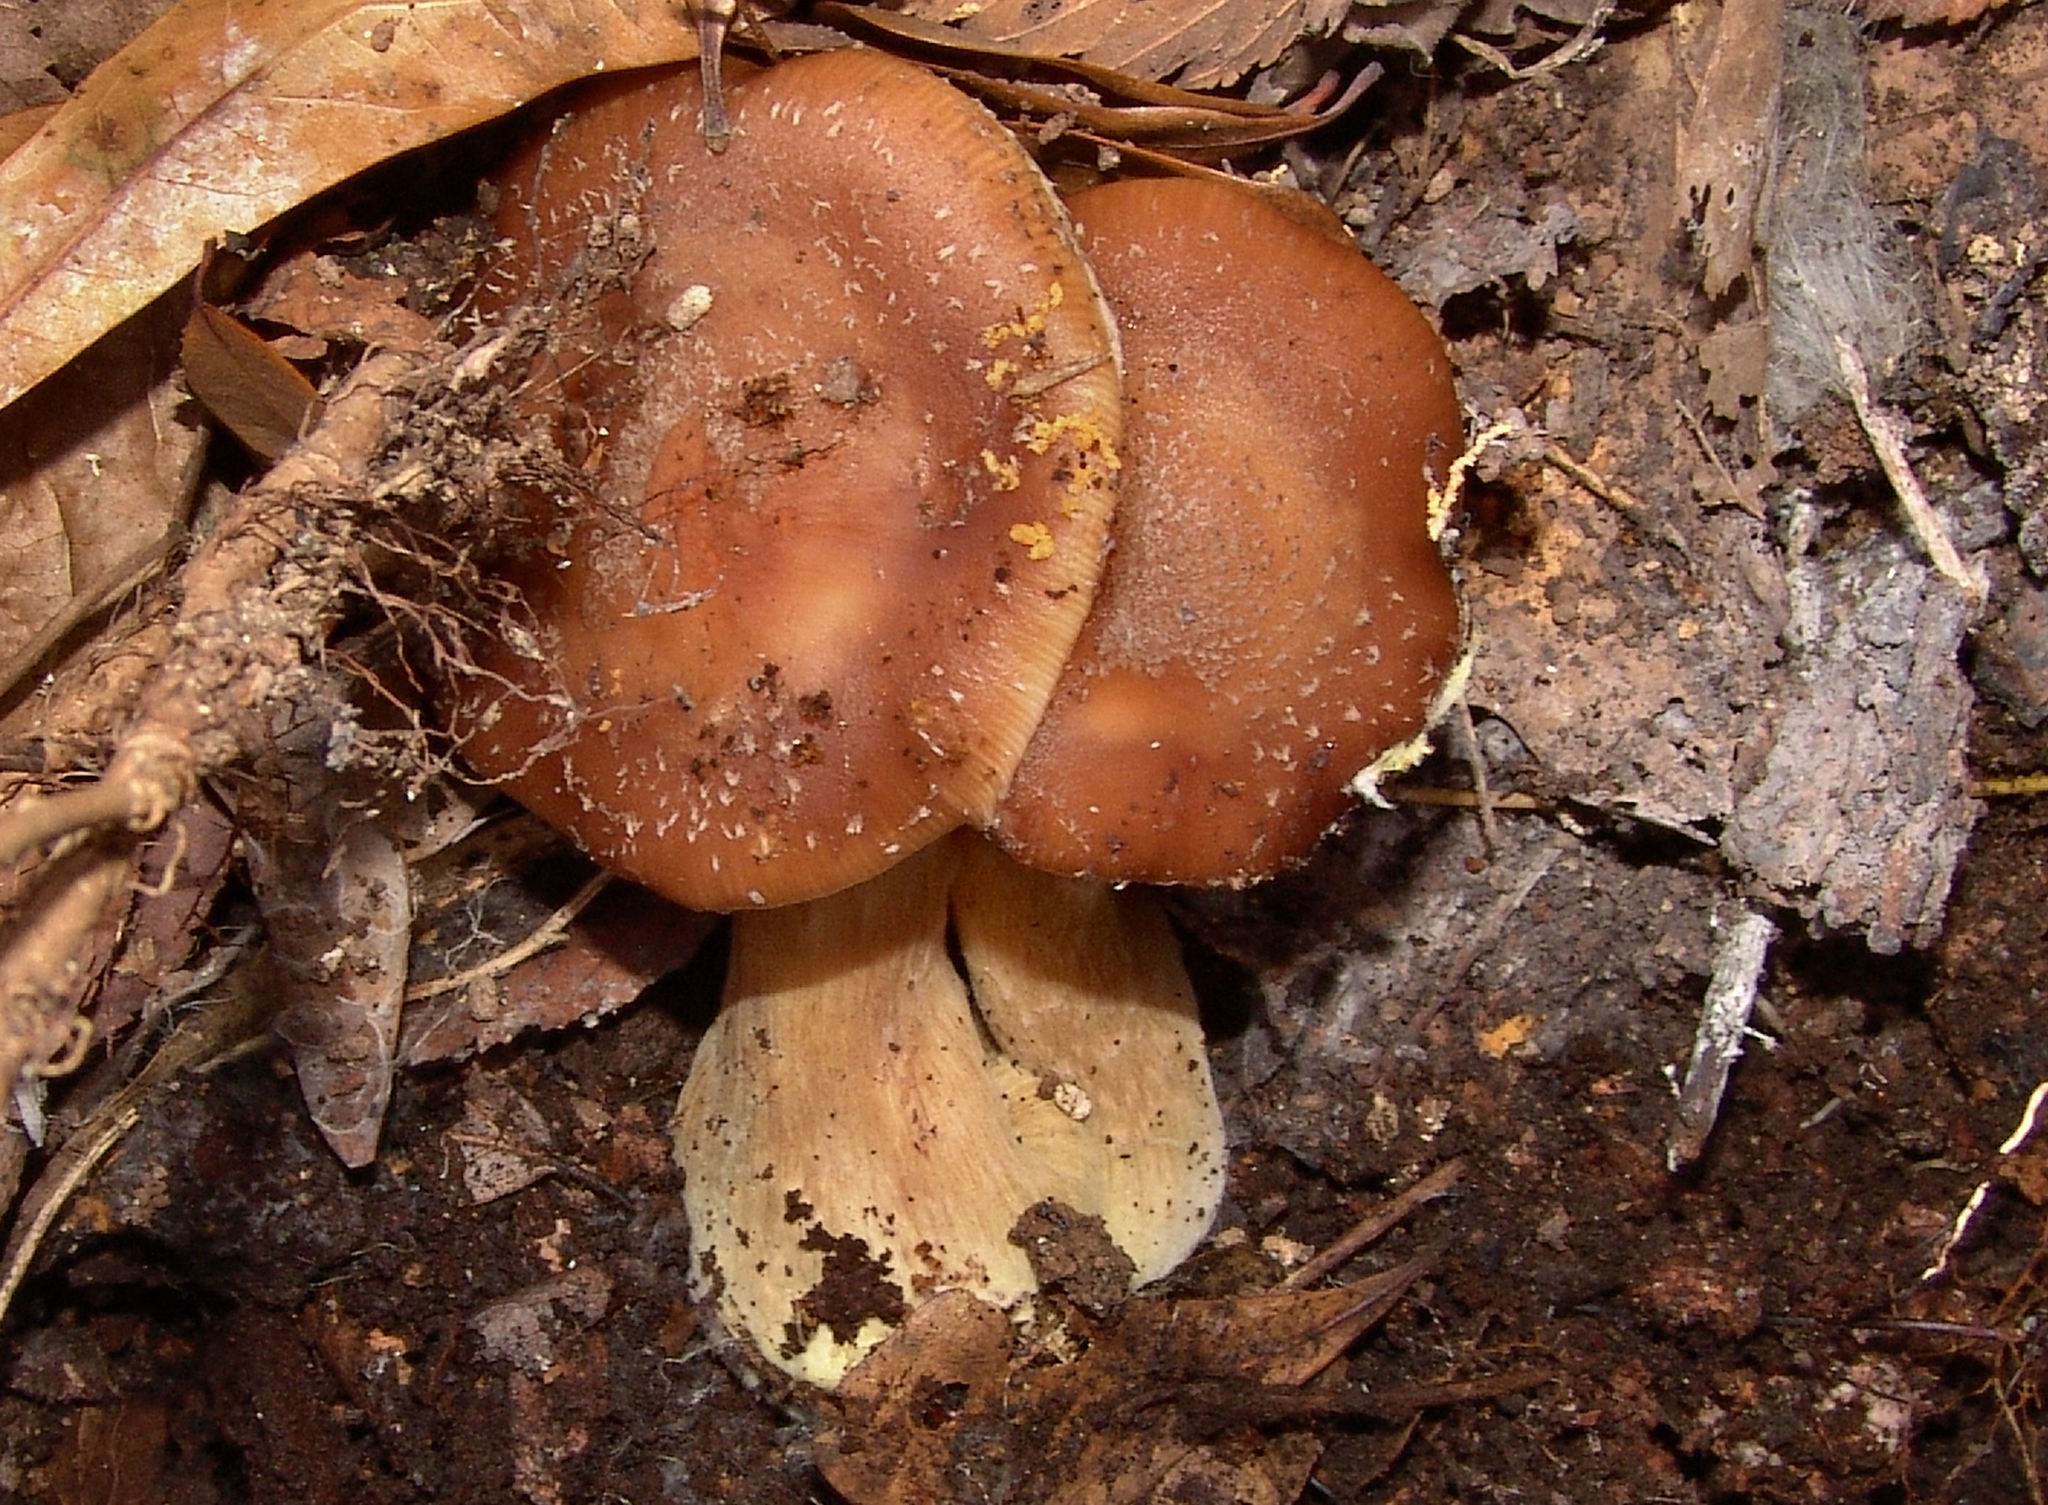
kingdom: Fungi
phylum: Basidiomycota
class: Agaricomycetes
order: Agaricales
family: Physalacriaceae
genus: Armillaria
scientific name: Armillaria gallica
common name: Bulbous honey fungus
